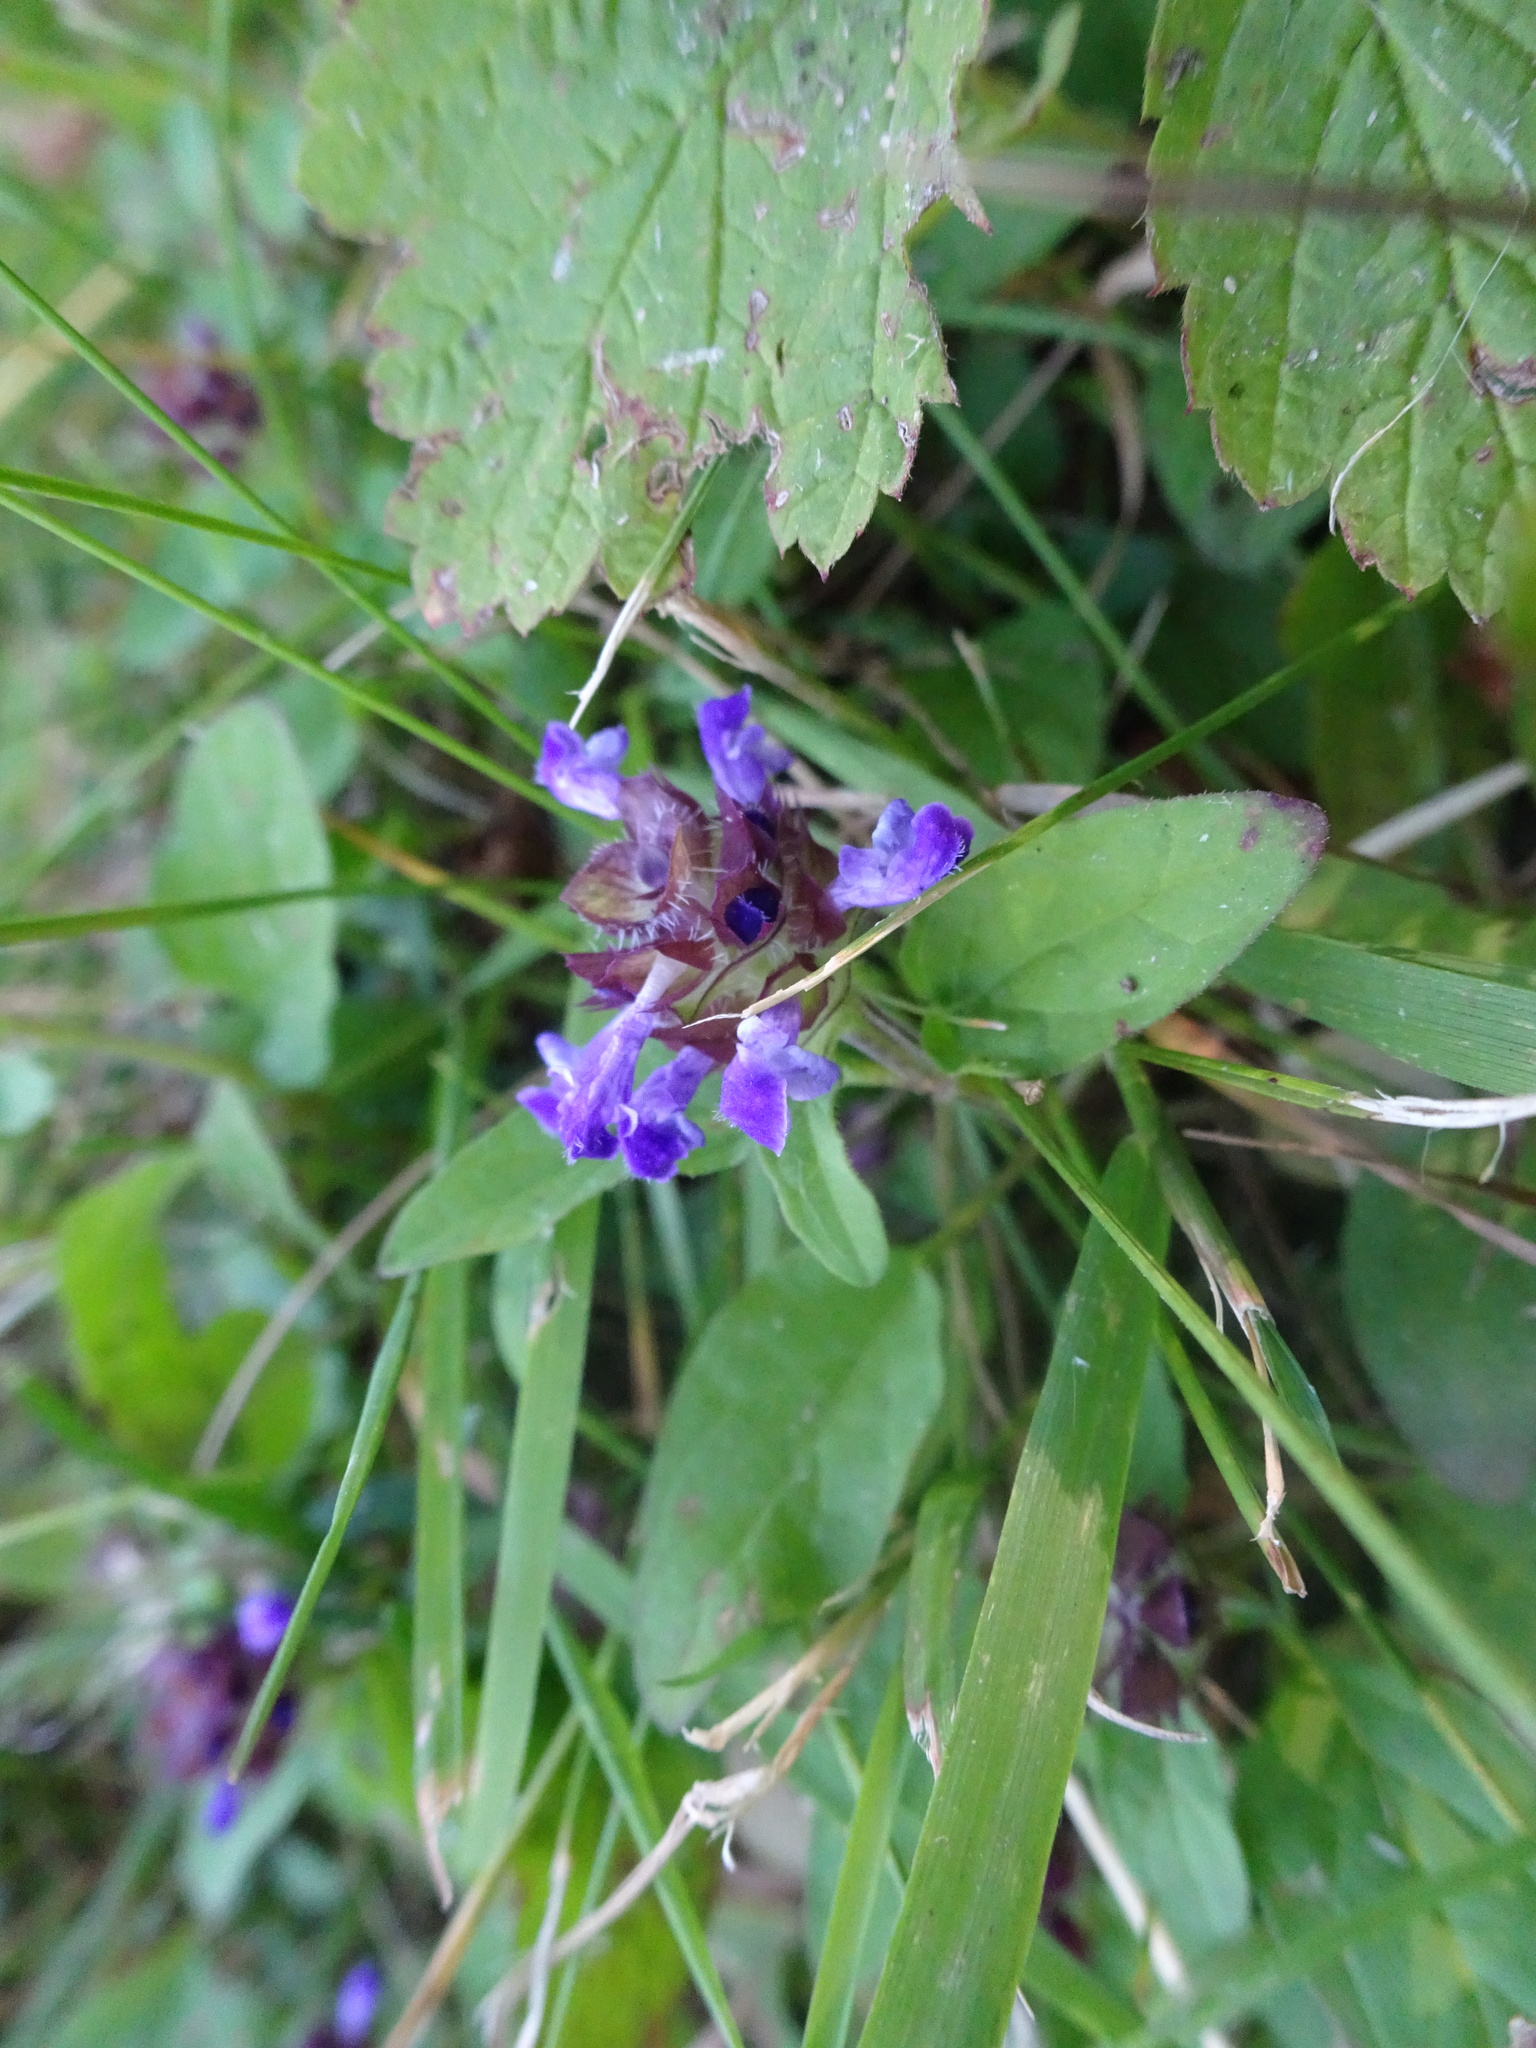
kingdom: Plantae
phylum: Tracheophyta
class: Magnoliopsida
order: Lamiales
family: Lamiaceae
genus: Prunella
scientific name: Prunella vulgaris
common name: Heal-all
